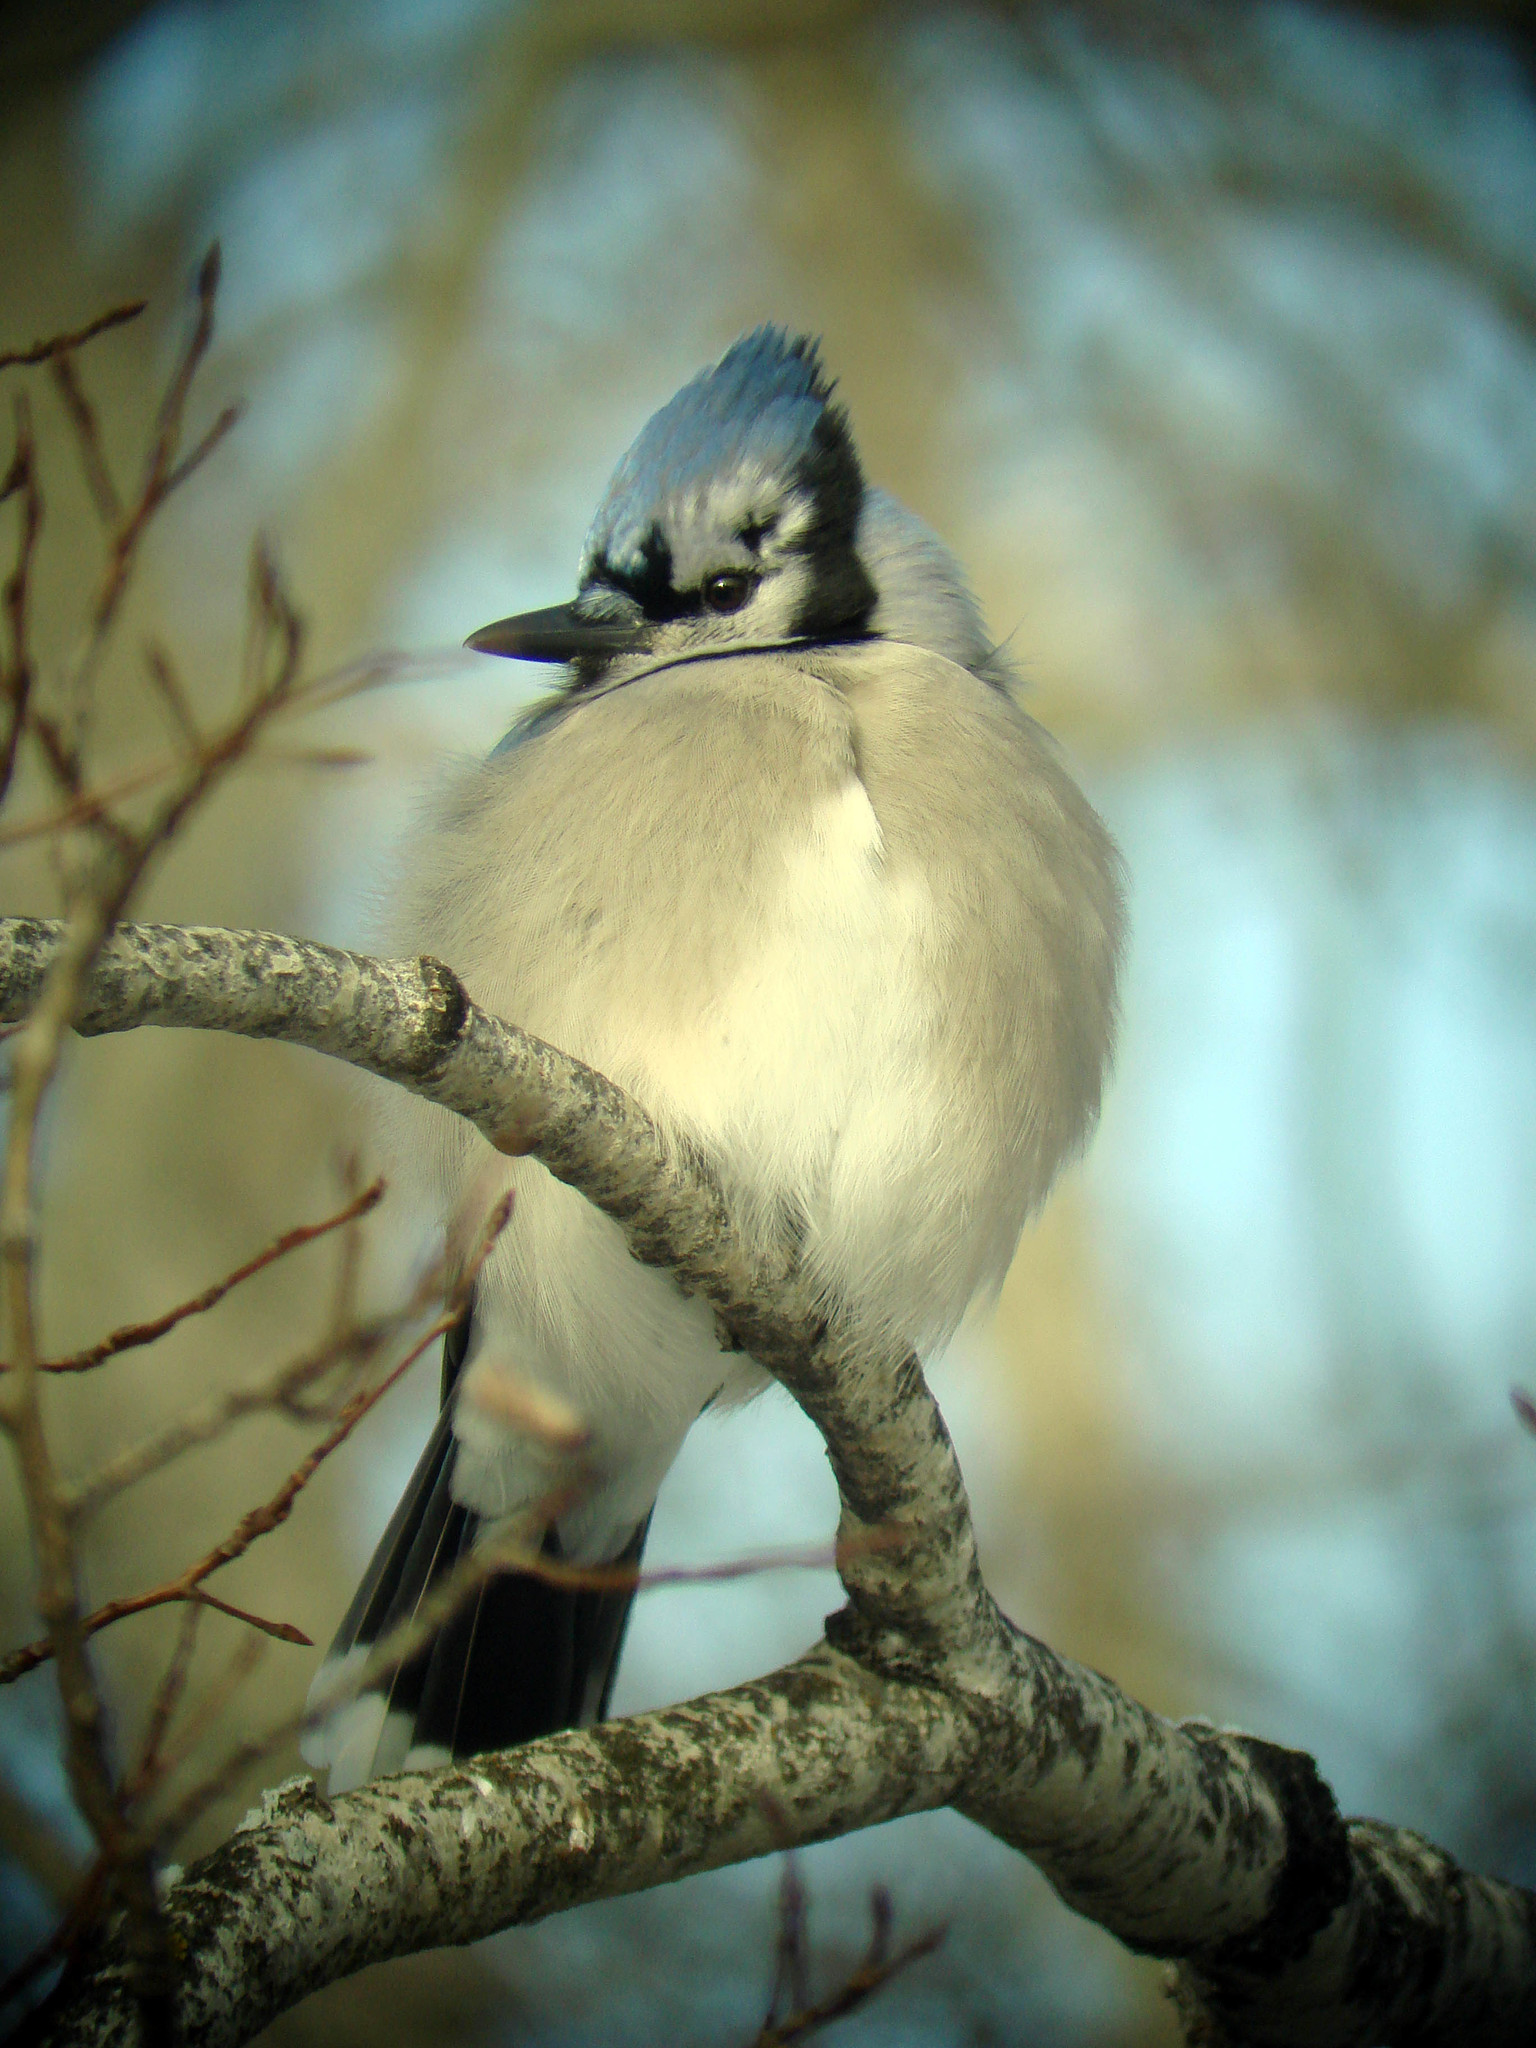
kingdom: Animalia
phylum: Chordata
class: Aves
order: Passeriformes
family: Corvidae
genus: Cyanocitta
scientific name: Cyanocitta cristata
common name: Blue jay
